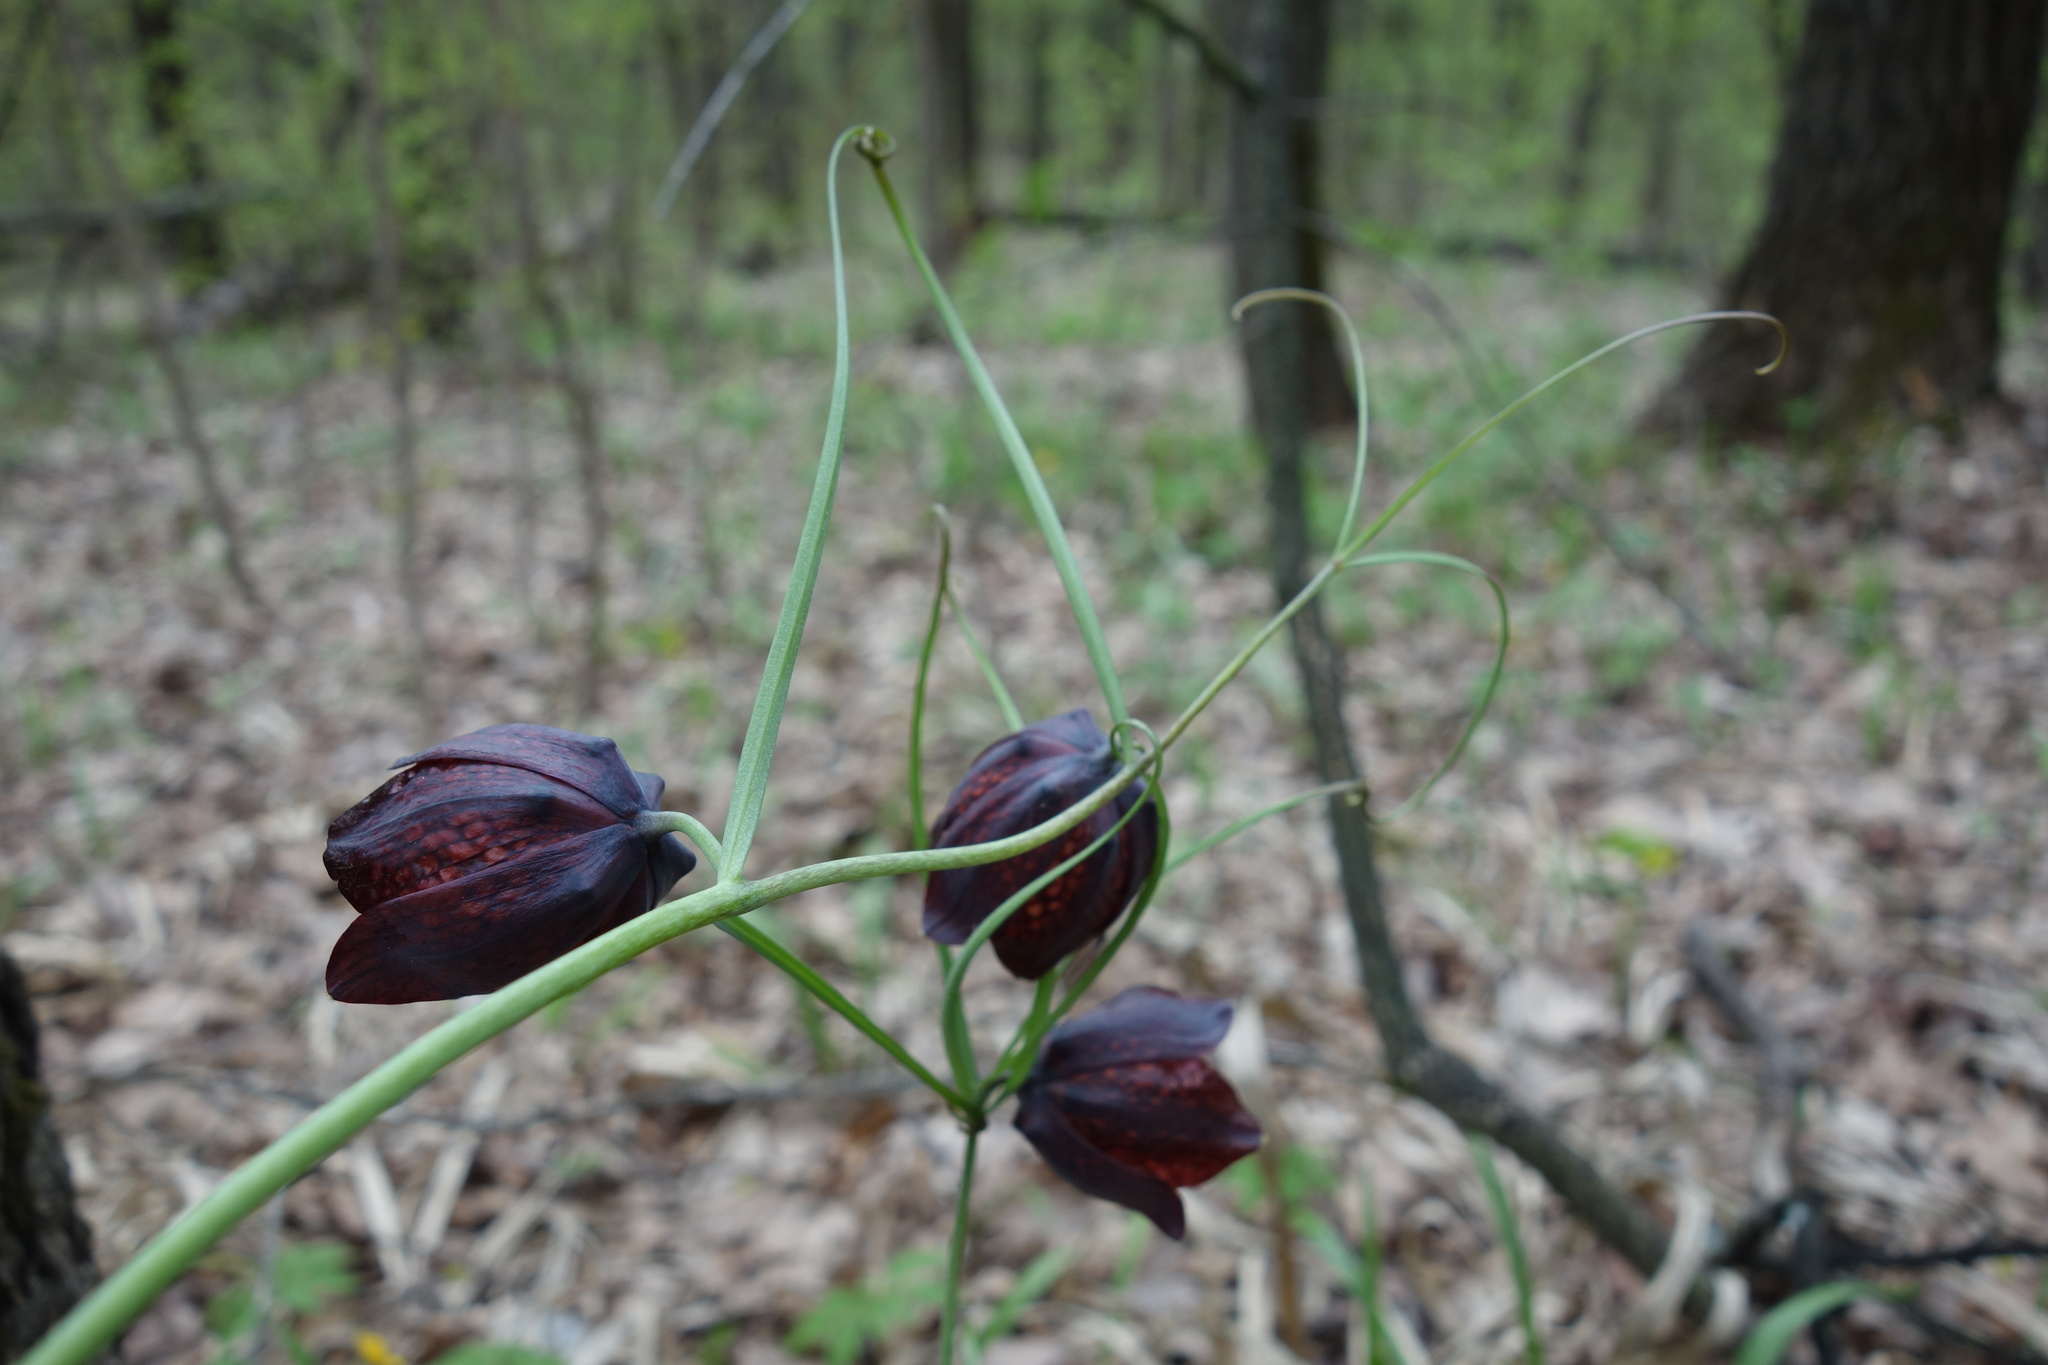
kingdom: Plantae
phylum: Tracheophyta
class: Liliopsida
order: Liliales
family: Liliaceae
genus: Fritillaria
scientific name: Fritillaria ruthenica
